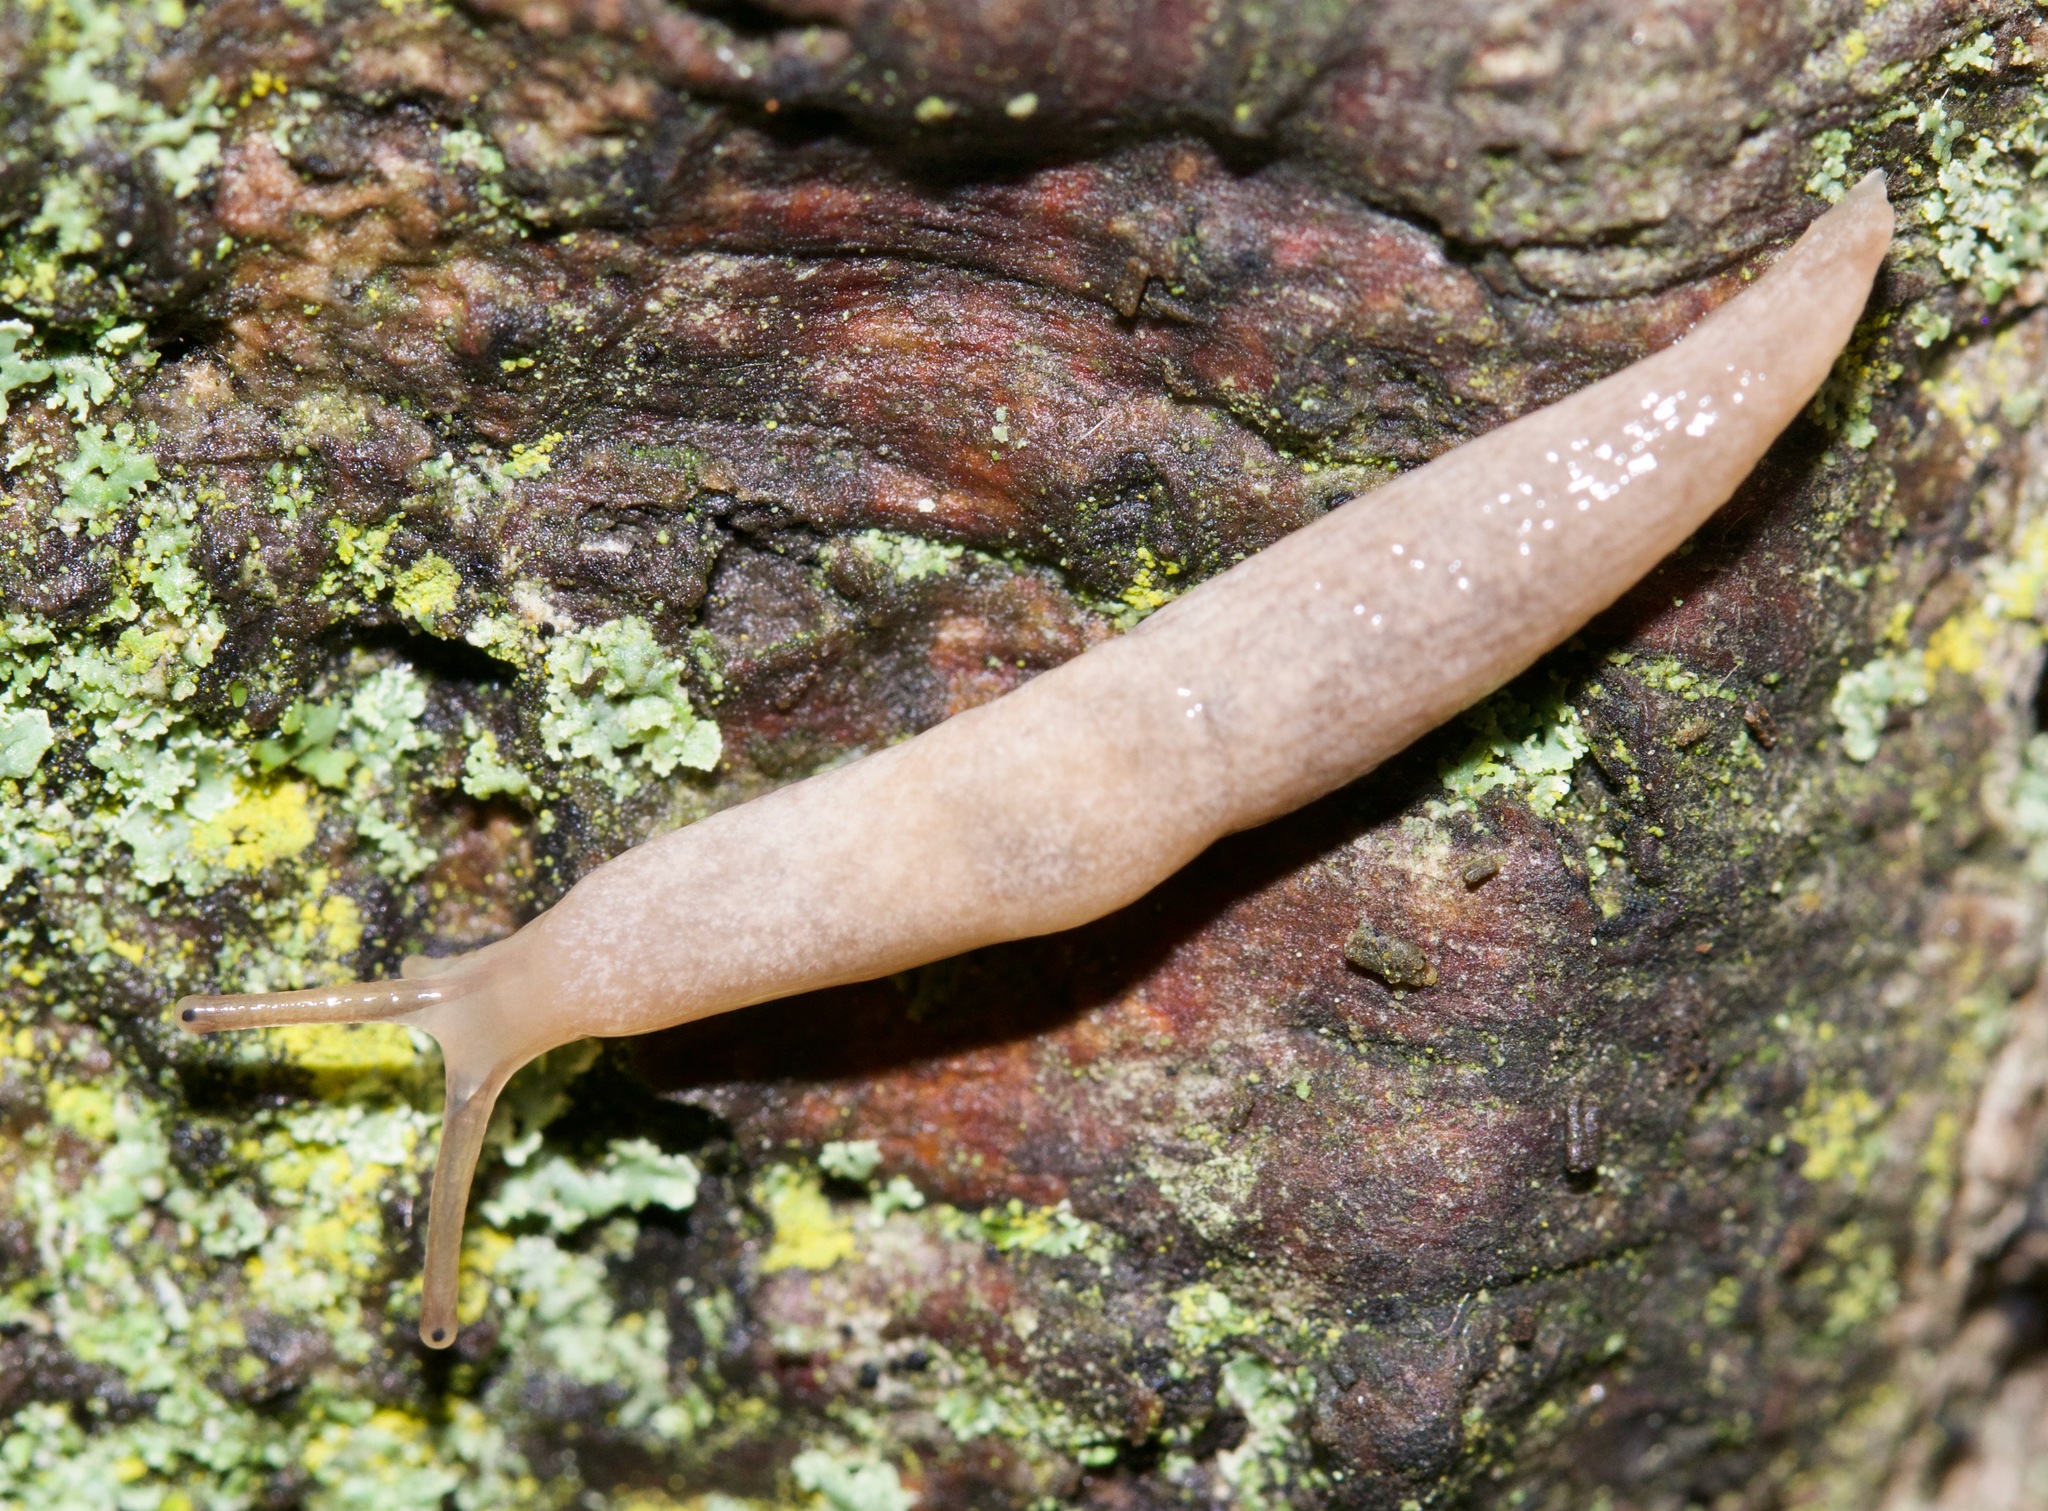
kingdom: Animalia
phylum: Mollusca
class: Gastropoda
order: Stylommatophora
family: Agriolimacidae
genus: Deroceras
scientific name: Deroceras reticulatum
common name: Gray field slug
